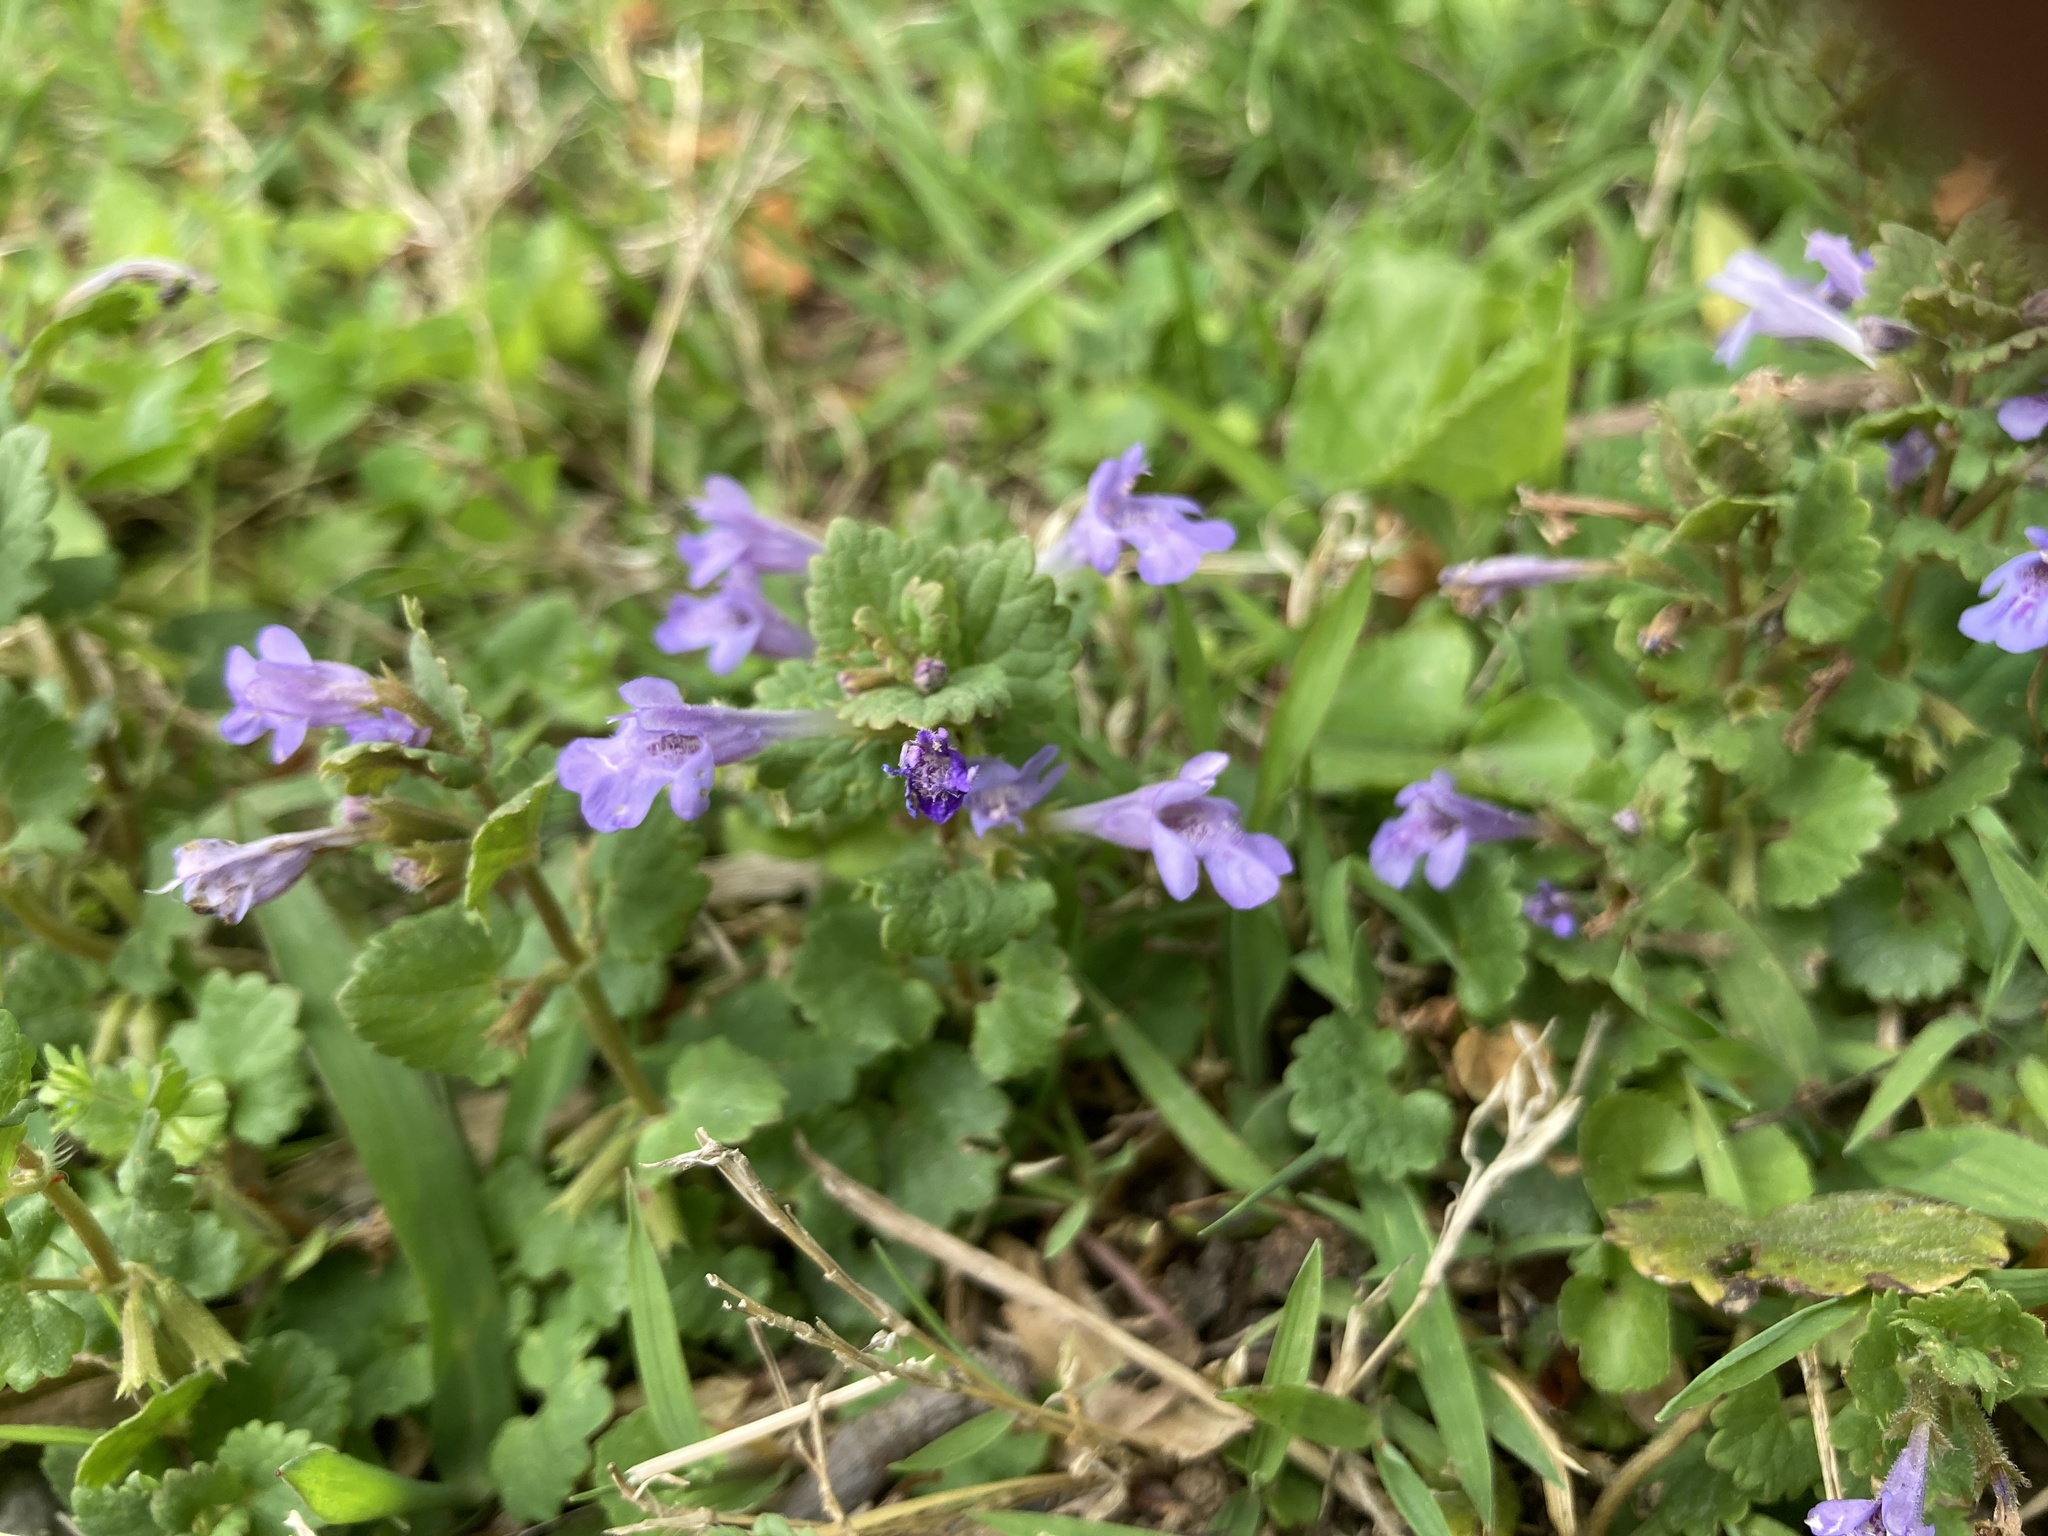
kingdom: Plantae
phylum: Tracheophyta
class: Magnoliopsida
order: Lamiales
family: Lamiaceae
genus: Glechoma
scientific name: Glechoma hederacea
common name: Ground ivy
